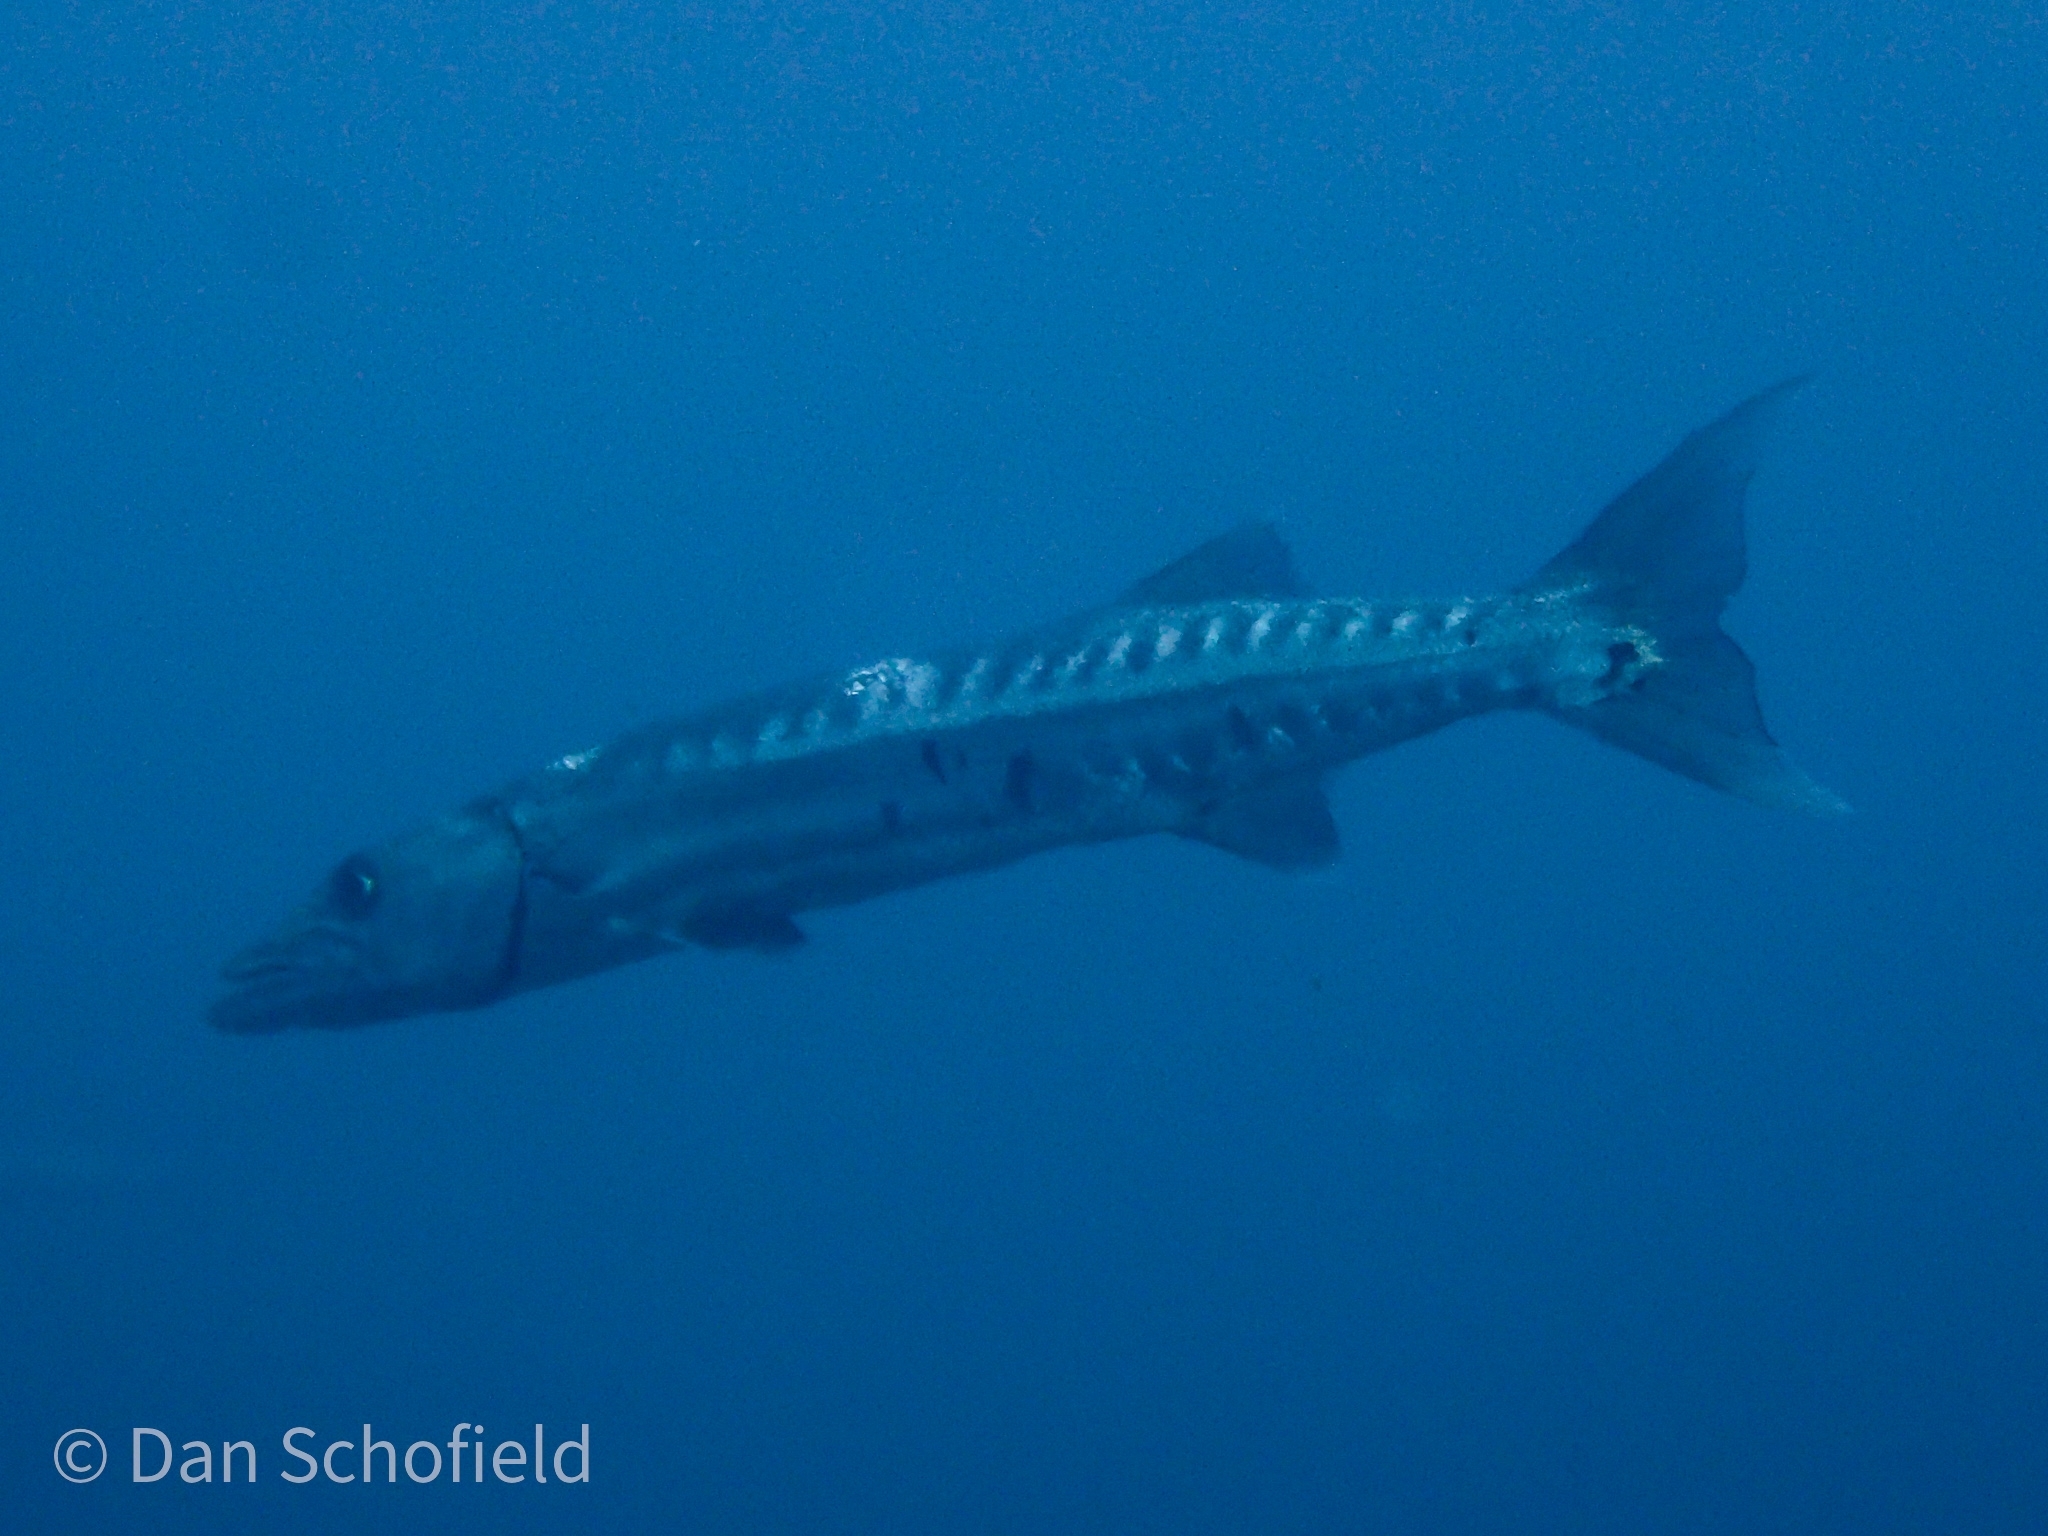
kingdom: Animalia
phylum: Chordata
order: Perciformes
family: Sphyraenidae
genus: Sphyraena
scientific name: Sphyraena barracuda
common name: Great barracuda
